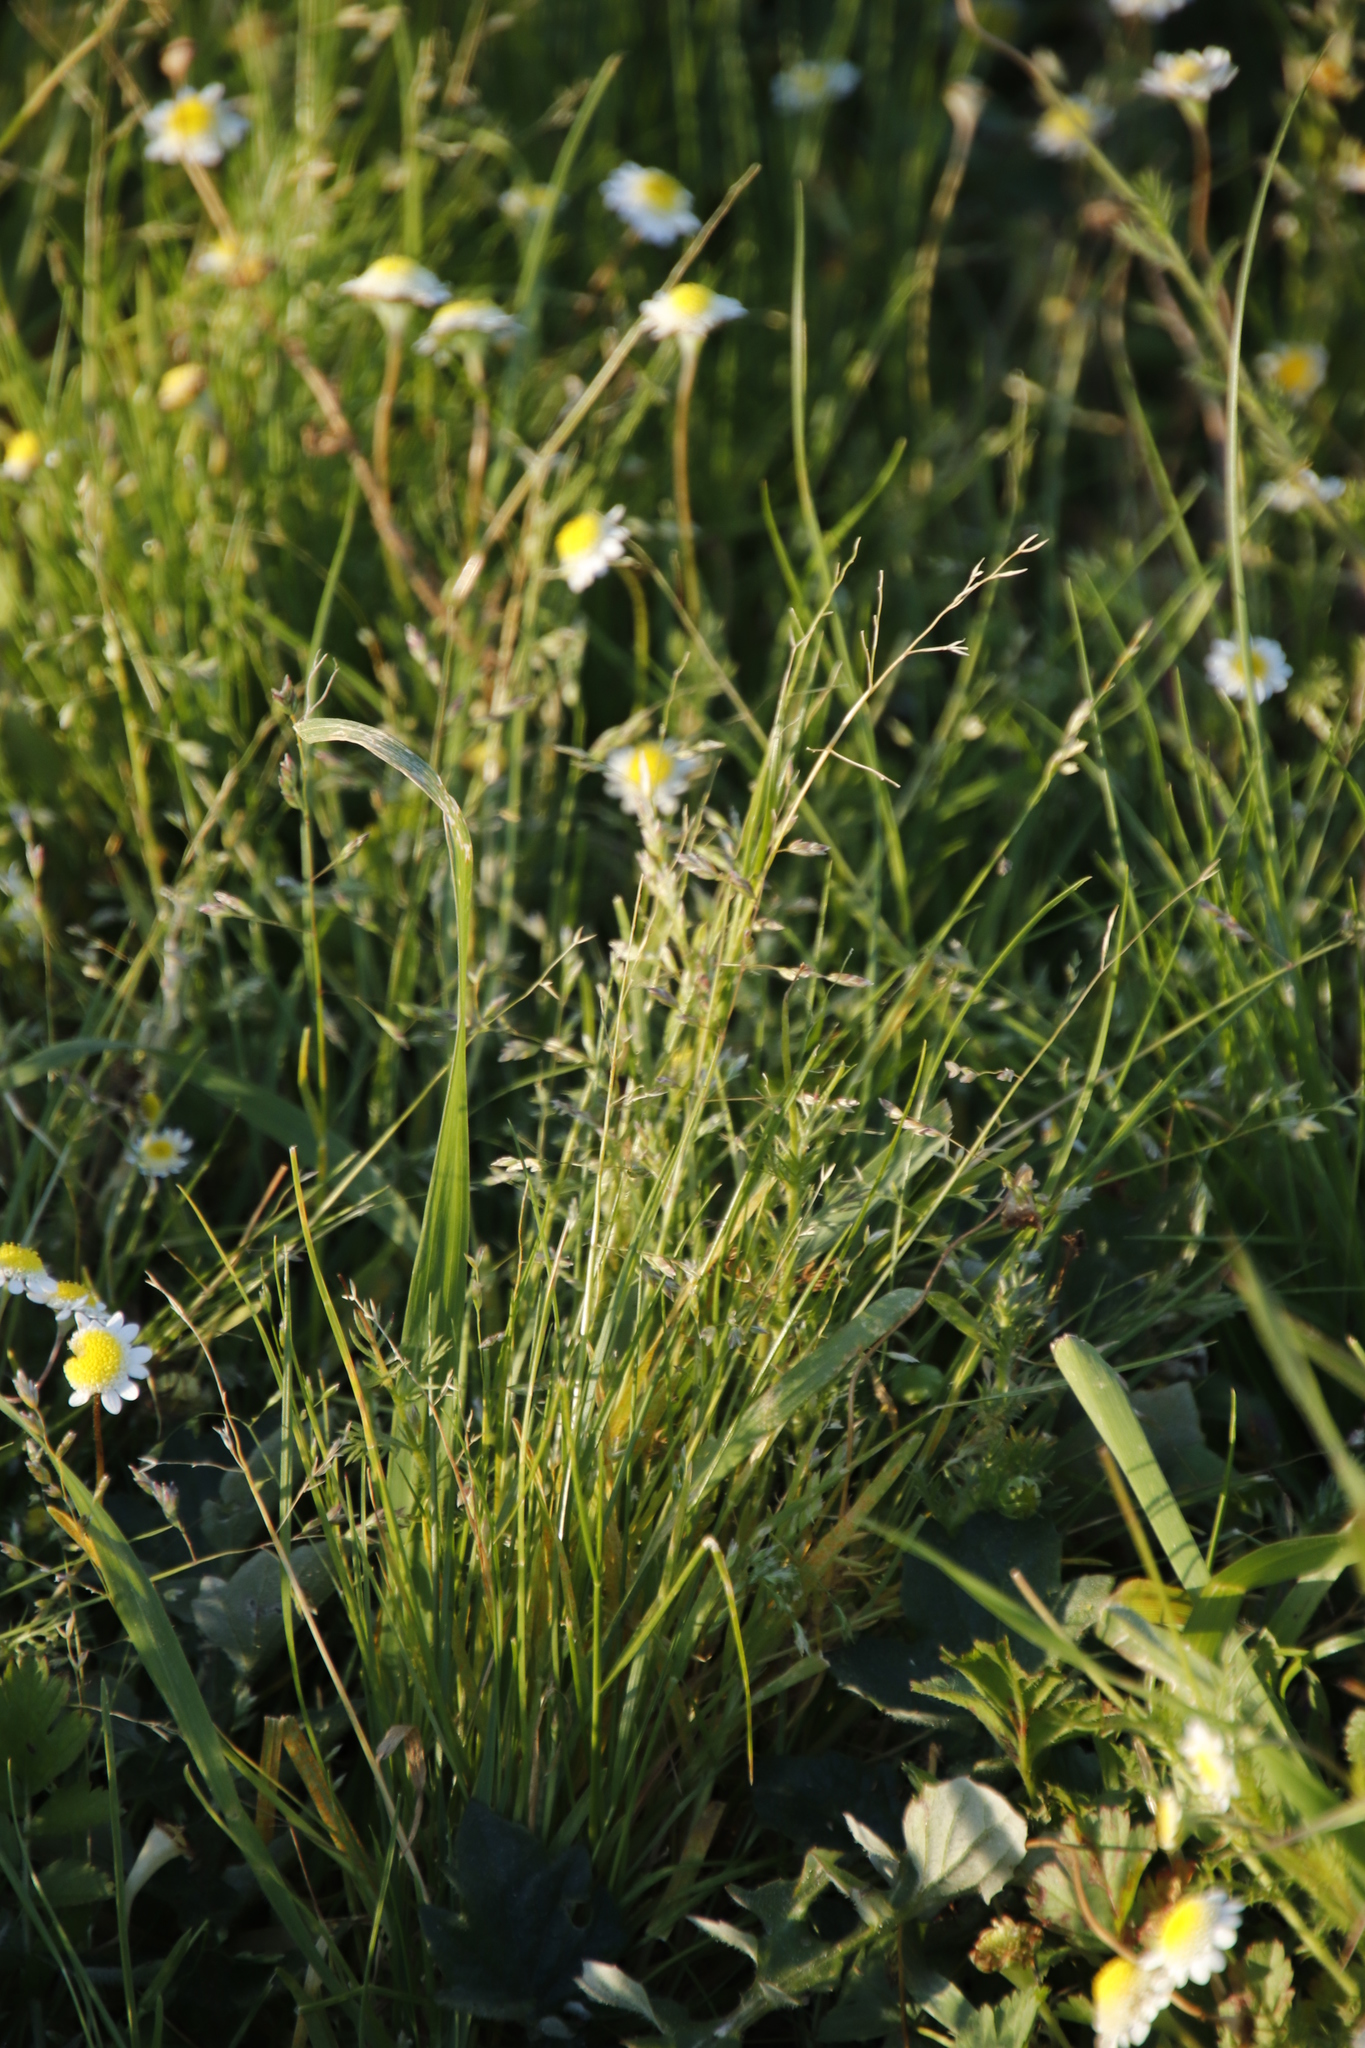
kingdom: Plantae
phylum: Tracheophyta
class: Liliopsida
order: Poales
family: Poaceae
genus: Poa
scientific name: Poa annua
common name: Annual bluegrass
